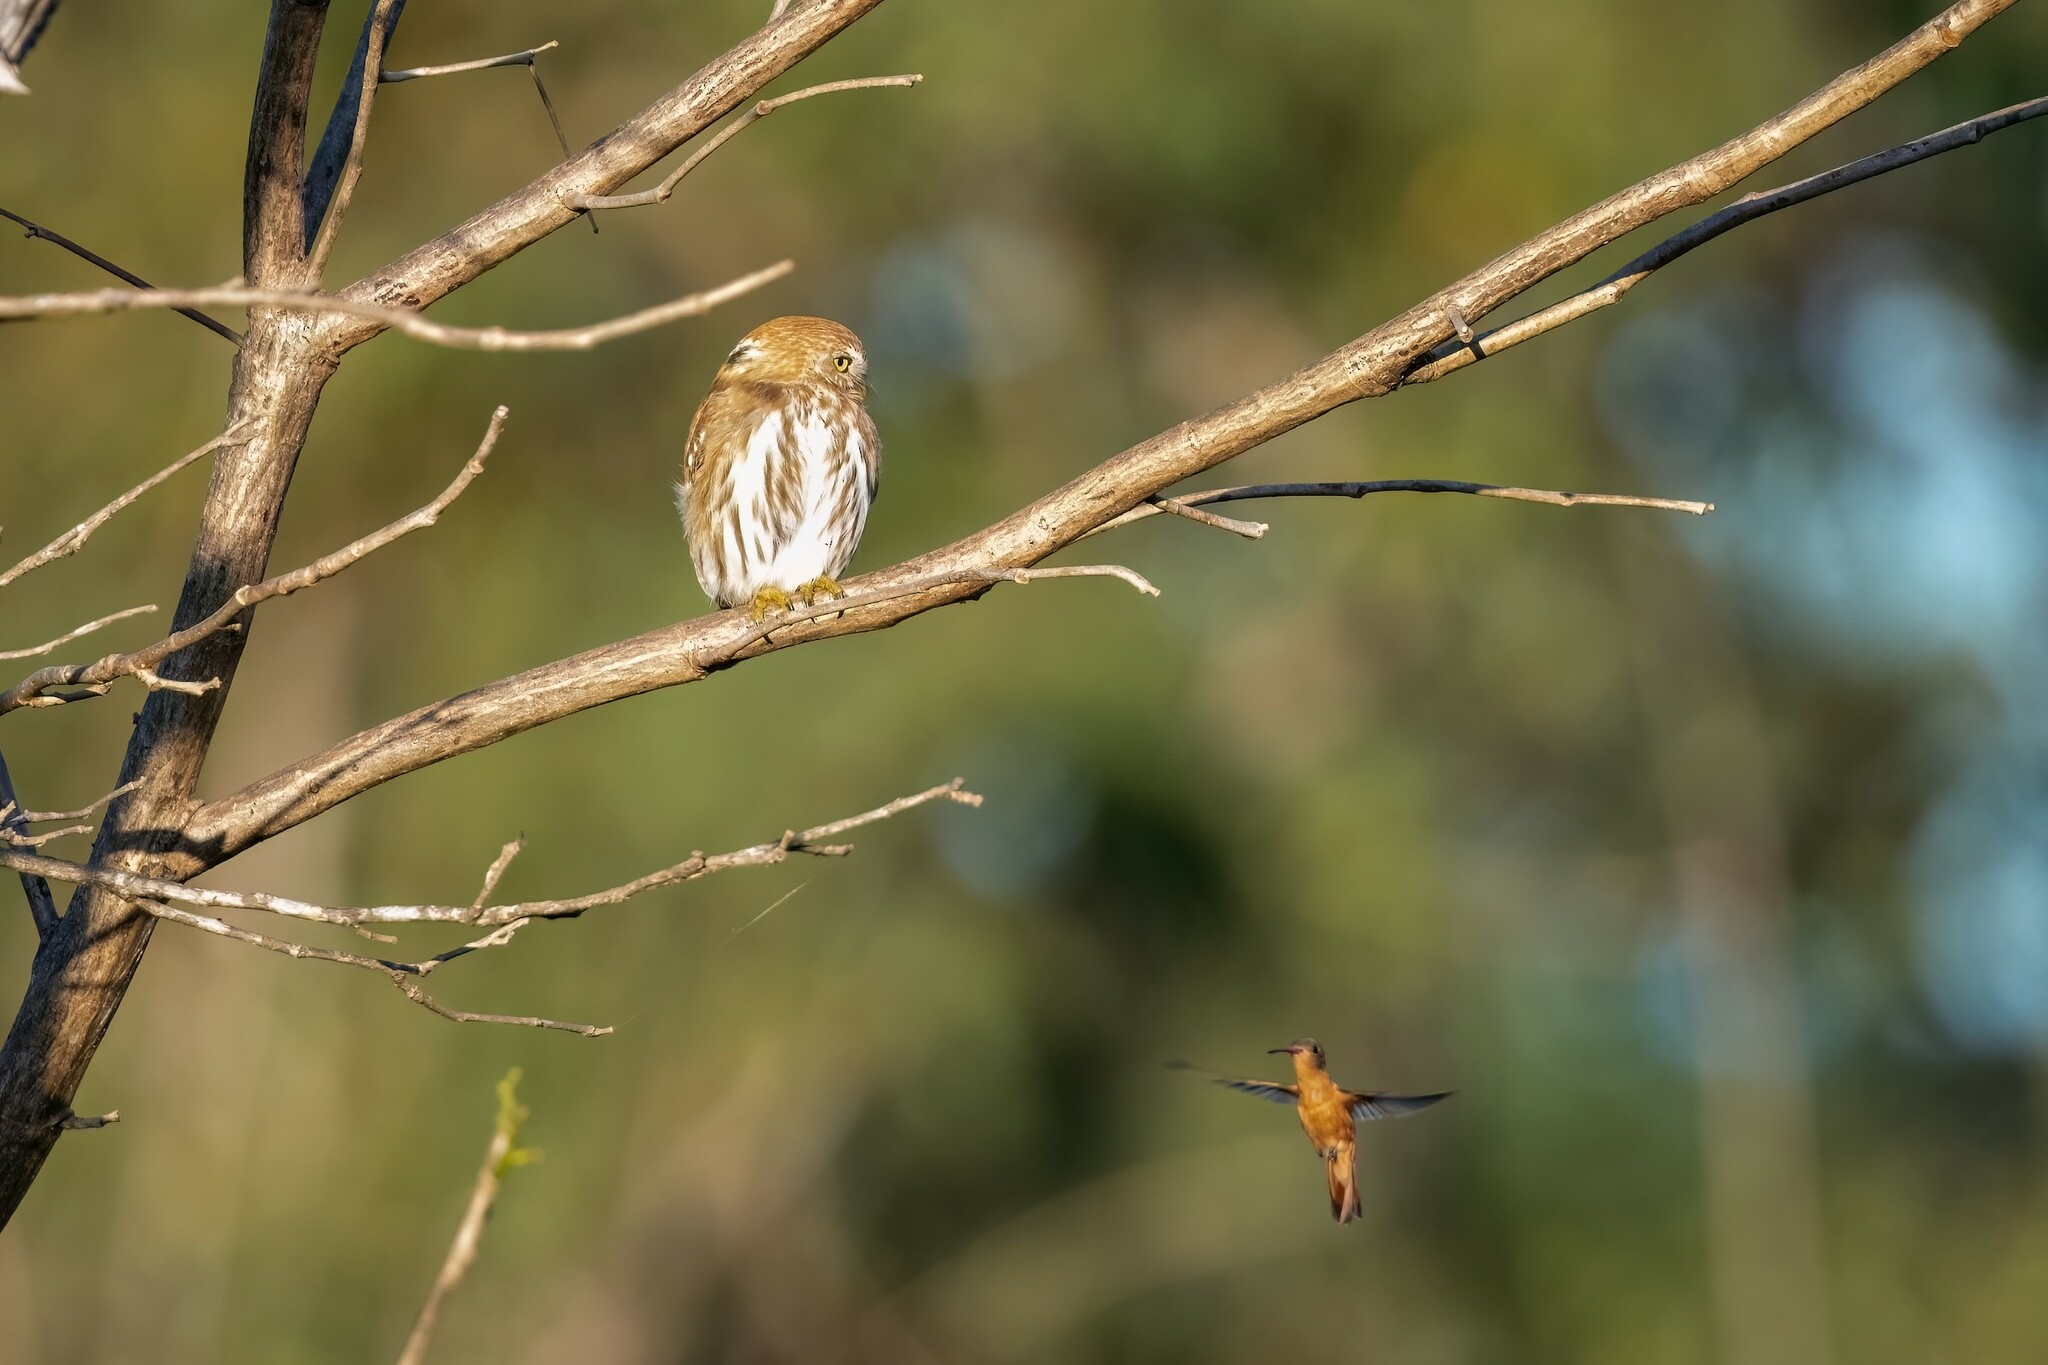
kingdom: Animalia
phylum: Chordata
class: Aves
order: Strigiformes
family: Strigidae
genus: Glaucidium
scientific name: Glaucidium brasilianum
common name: Ferruginous pygmy-owl
